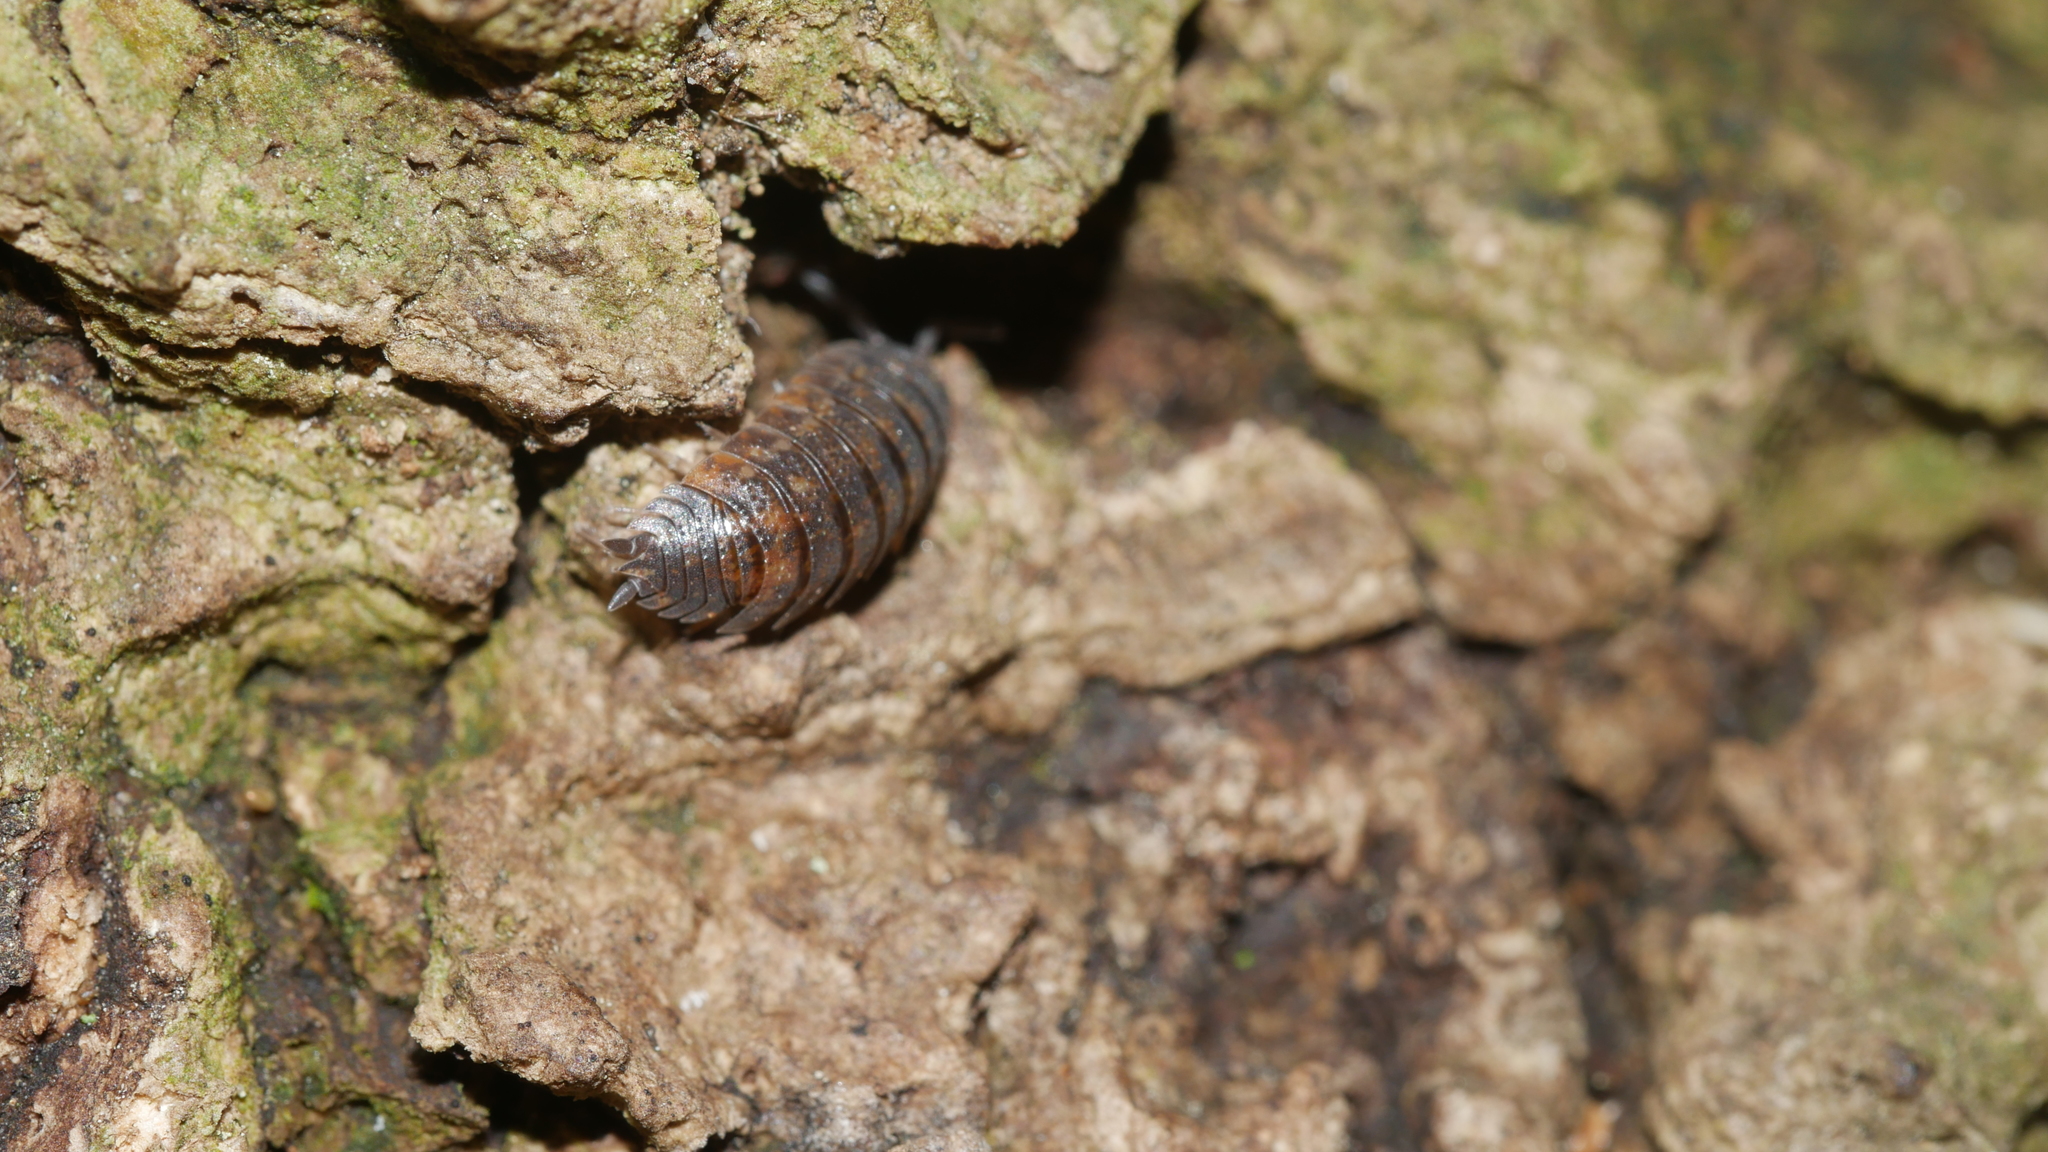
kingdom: Animalia
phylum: Arthropoda
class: Malacostraca
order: Isopoda
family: Porcellionidae
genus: Porcellio
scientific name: Porcellio scaber
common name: Common rough woodlouse
